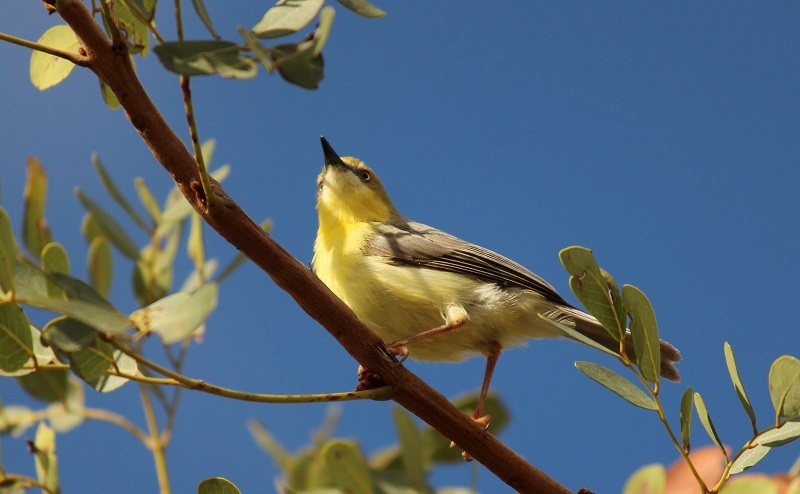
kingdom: Animalia
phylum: Chordata
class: Aves
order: Passeriformes
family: Cisticolidae
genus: Eremomela
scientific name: Eremomela scotops
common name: Green-capped eremomela
